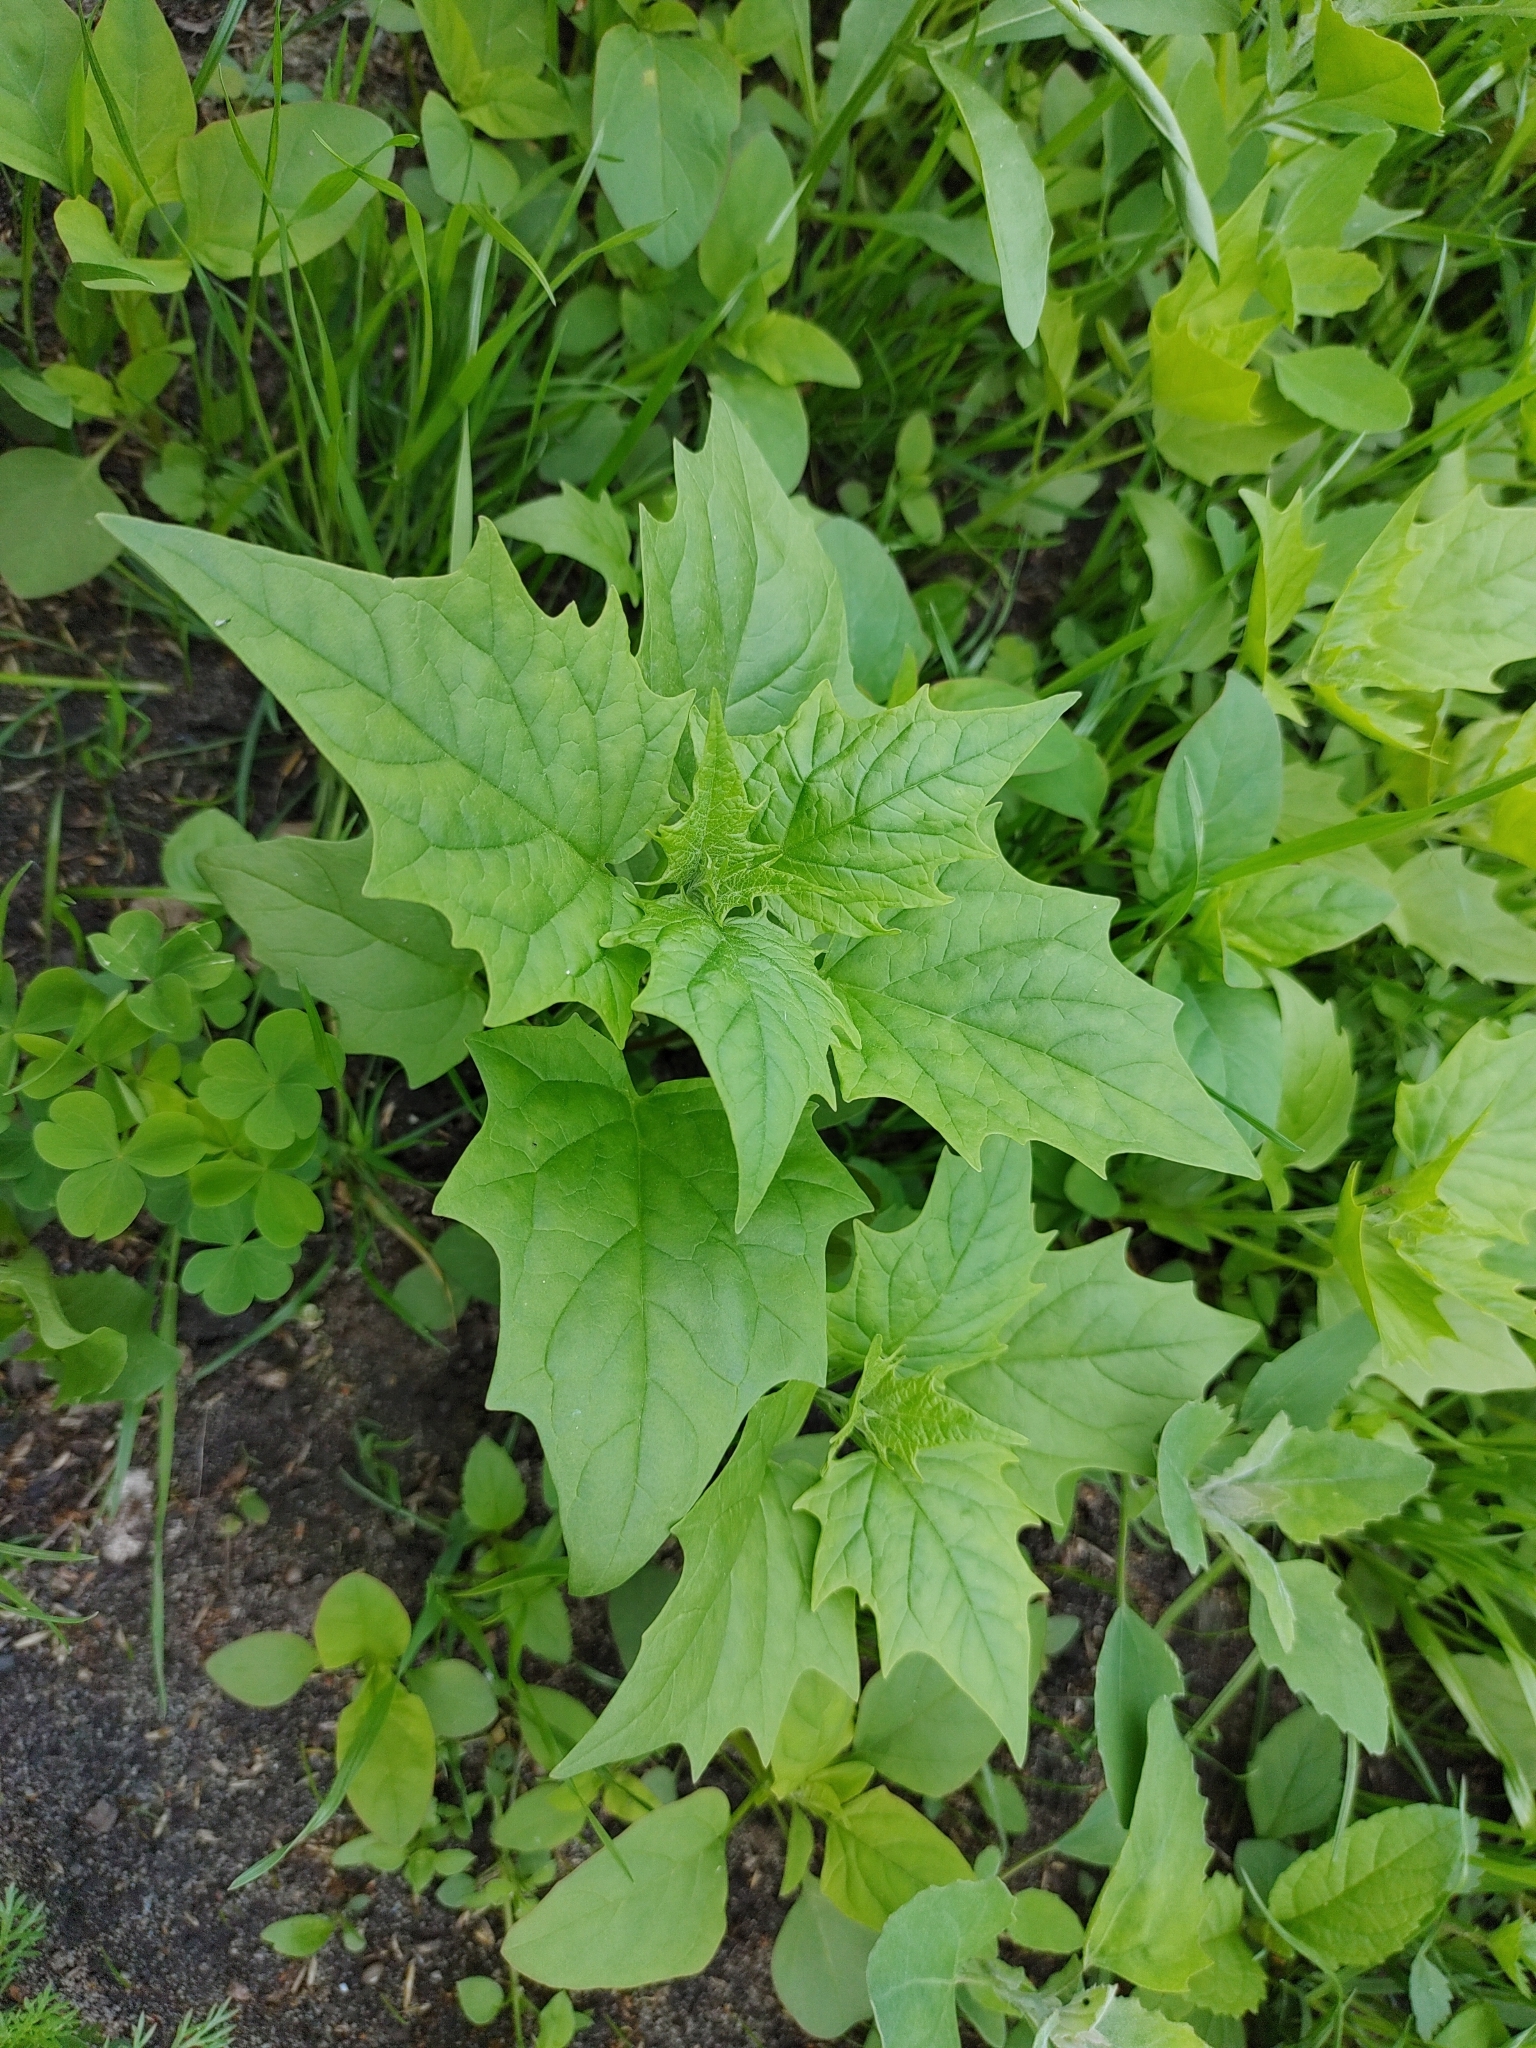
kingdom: Plantae
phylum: Tracheophyta
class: Magnoliopsida
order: Caryophyllales
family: Amaranthaceae
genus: Chenopodiastrum
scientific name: Chenopodiastrum hybridum
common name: Mapleleaf goosefoot
